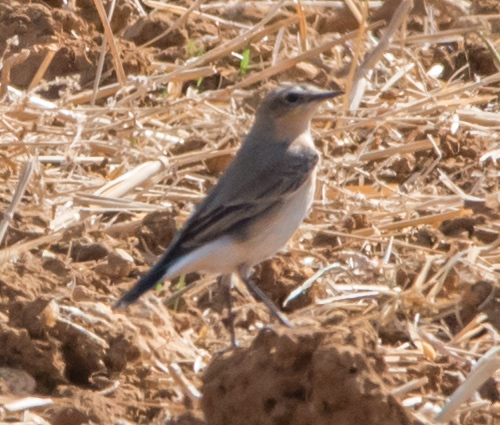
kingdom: Animalia
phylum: Chordata
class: Aves
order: Passeriformes
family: Muscicapidae
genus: Oenanthe
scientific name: Oenanthe oenanthe
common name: Northern wheatear
